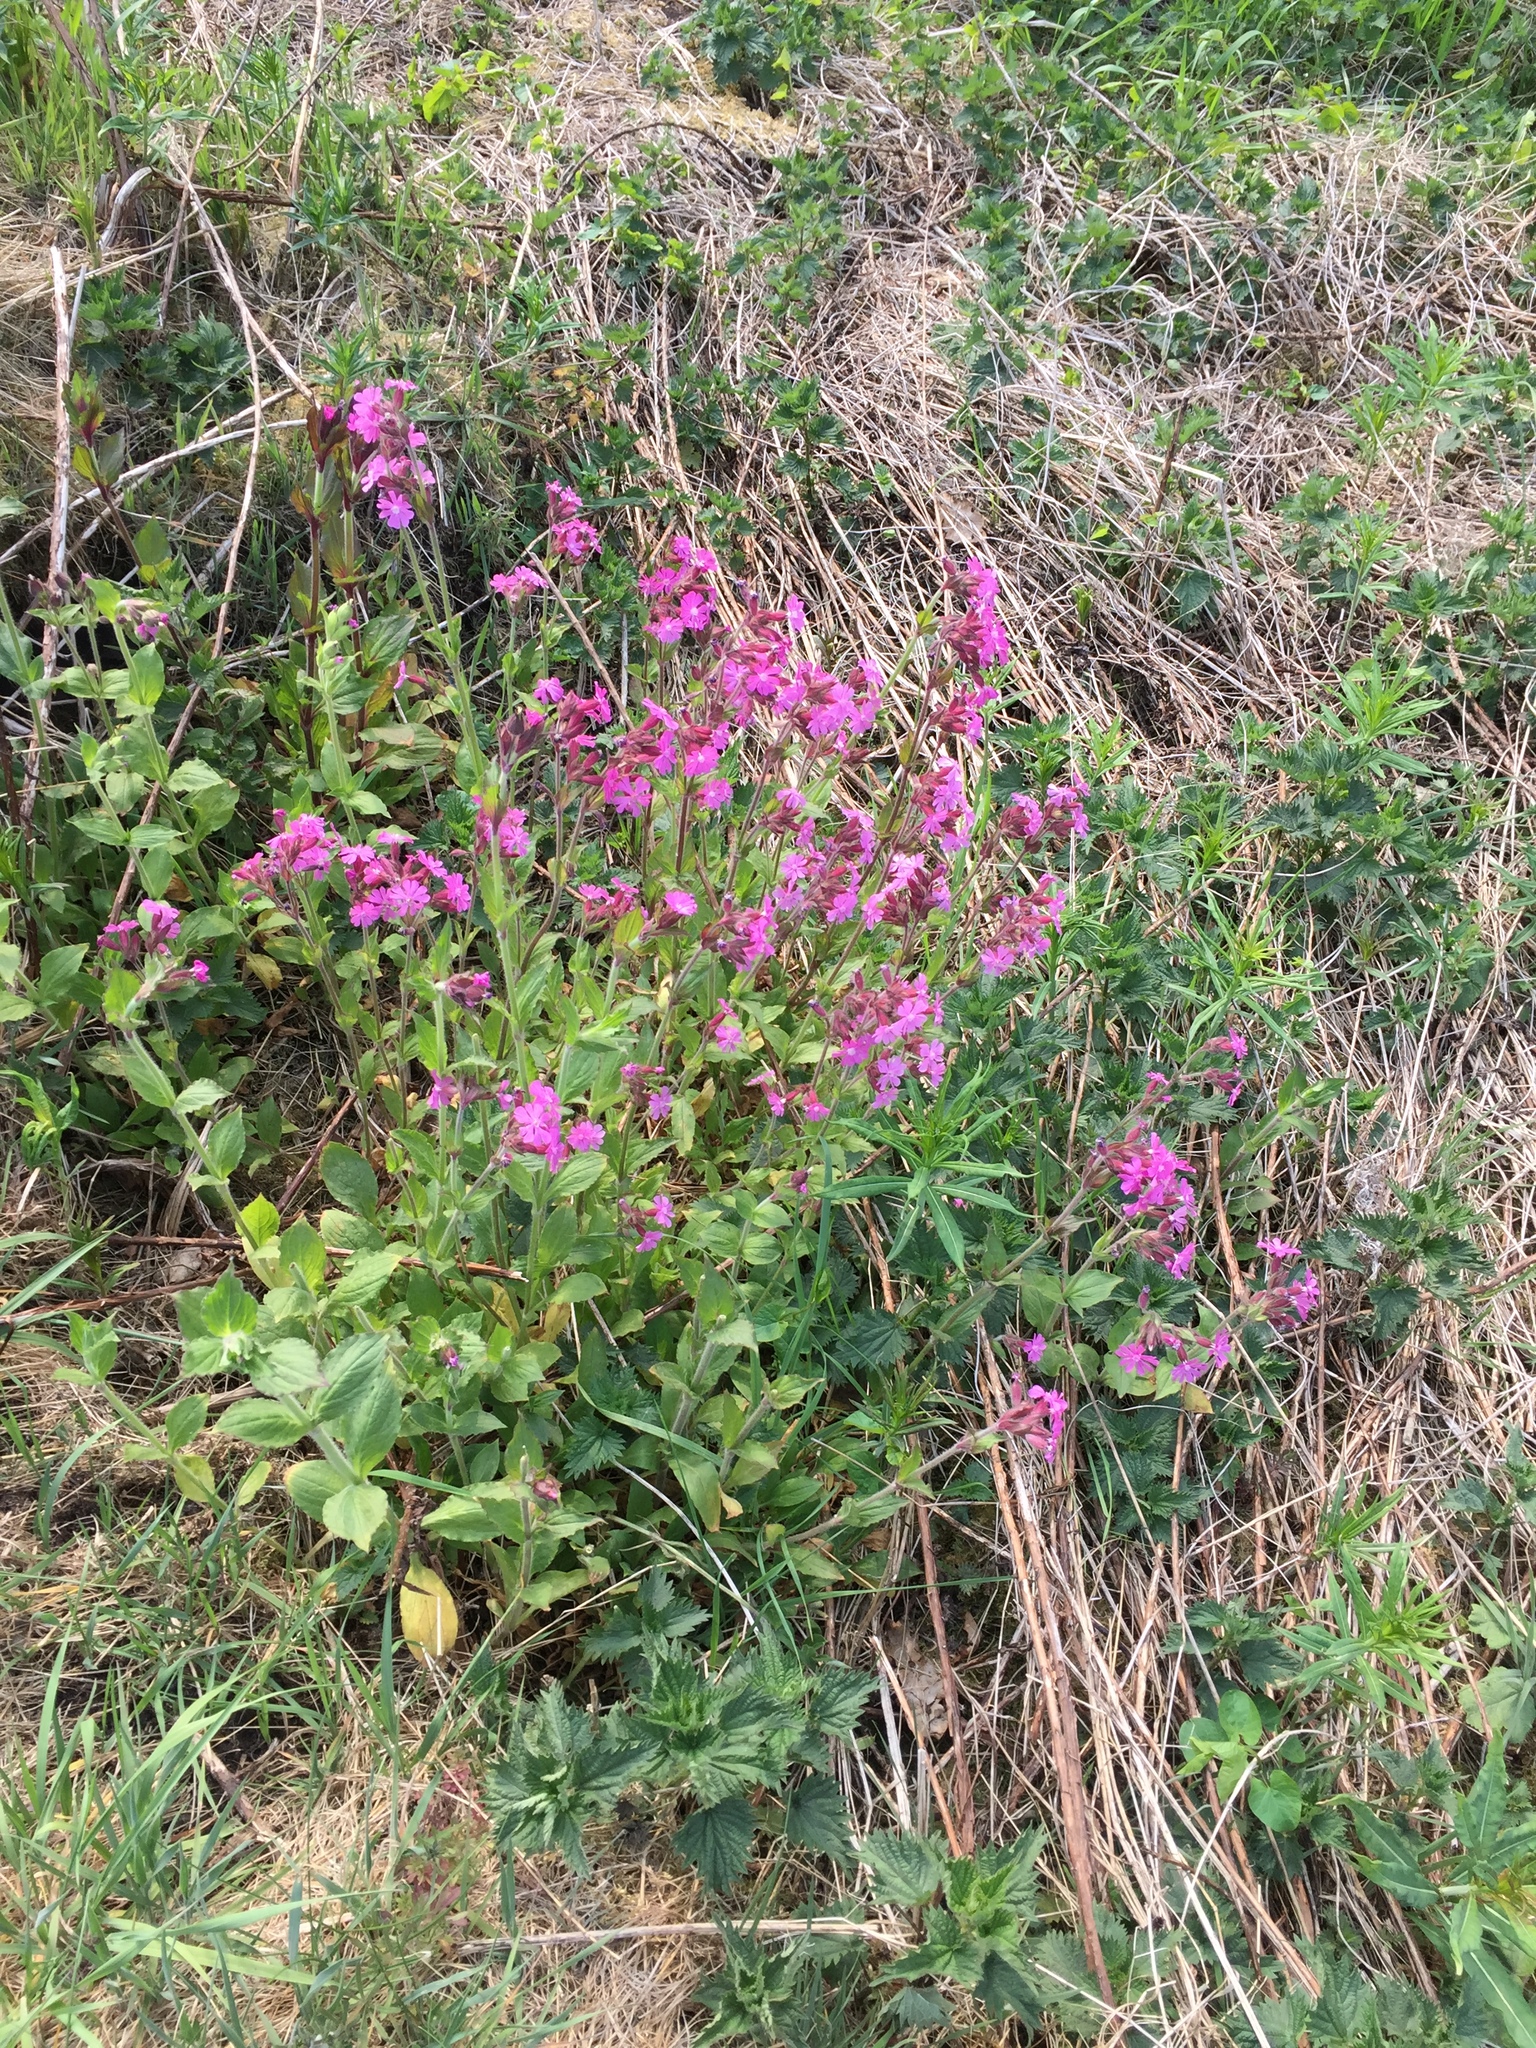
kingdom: Plantae
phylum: Tracheophyta
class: Magnoliopsida
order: Caryophyllales
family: Caryophyllaceae
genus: Silene
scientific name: Silene dioica
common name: Red campion
